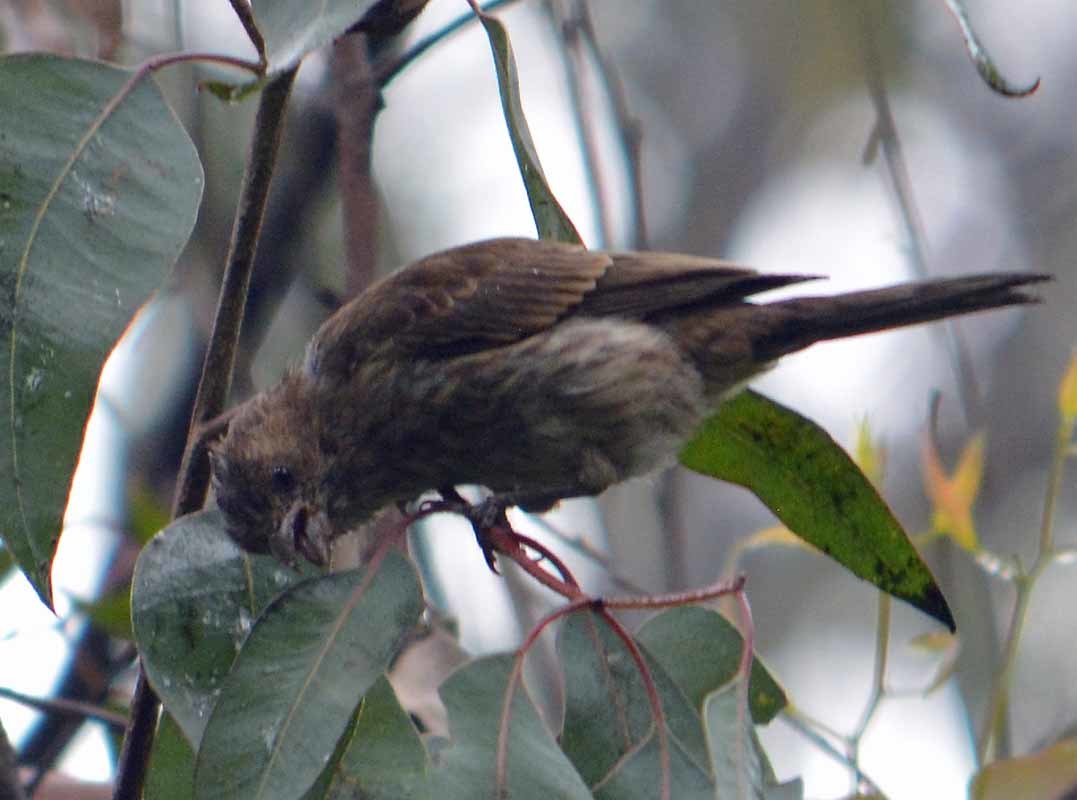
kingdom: Animalia
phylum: Chordata
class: Aves
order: Passeriformes
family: Fringillidae
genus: Haemorhous
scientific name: Haemorhous mexicanus
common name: House finch
